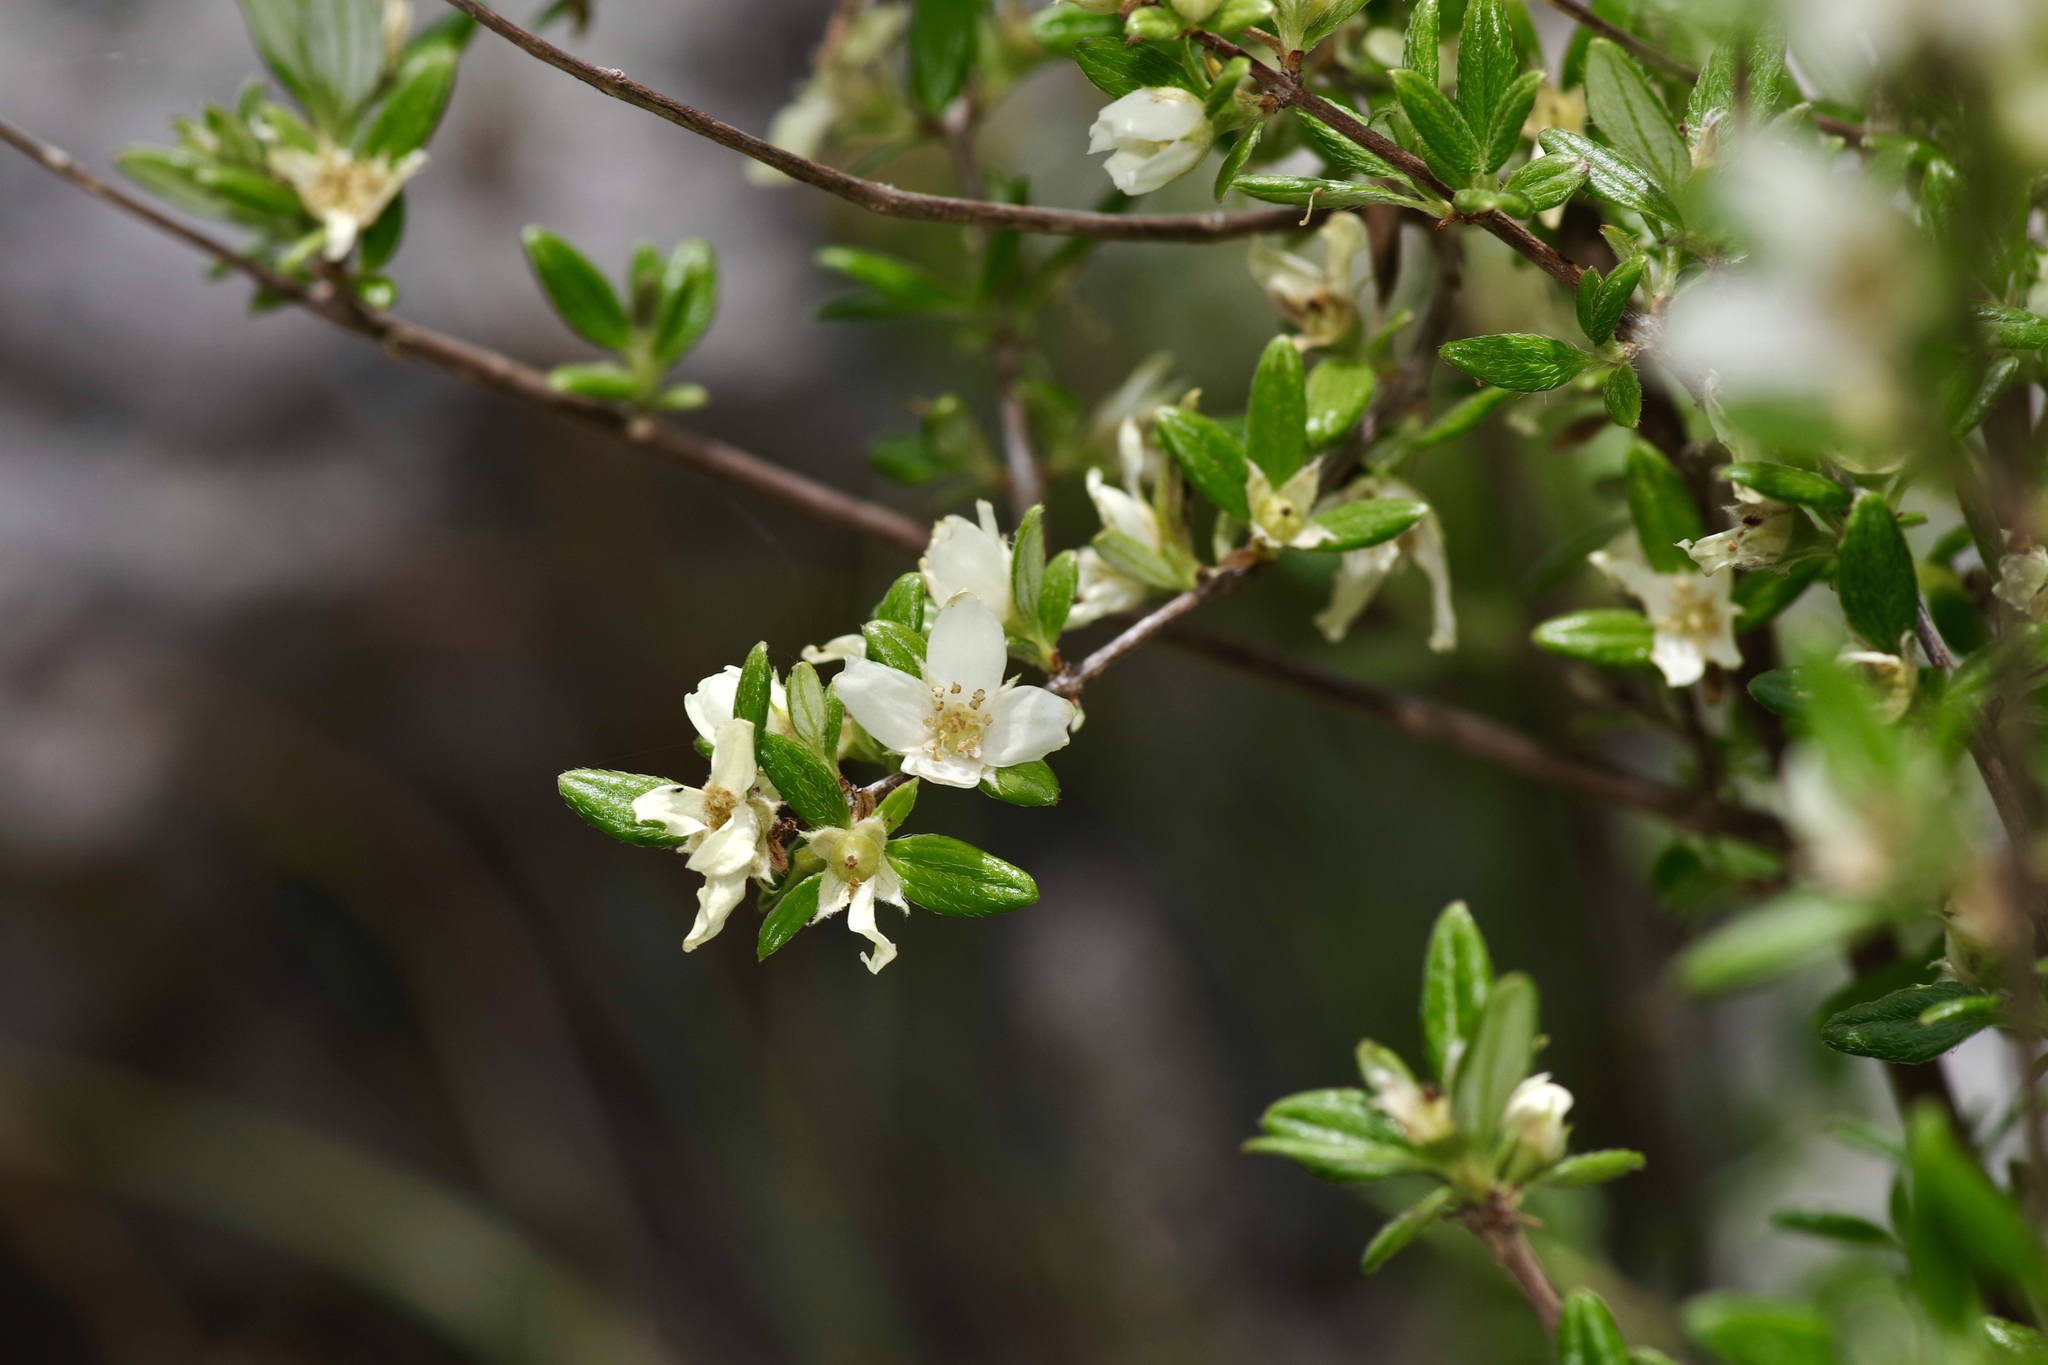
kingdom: Plantae
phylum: Tracheophyta
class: Magnoliopsida
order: Cornales
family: Hydrangeaceae
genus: Philadelphus
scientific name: Philadelphus texensis
